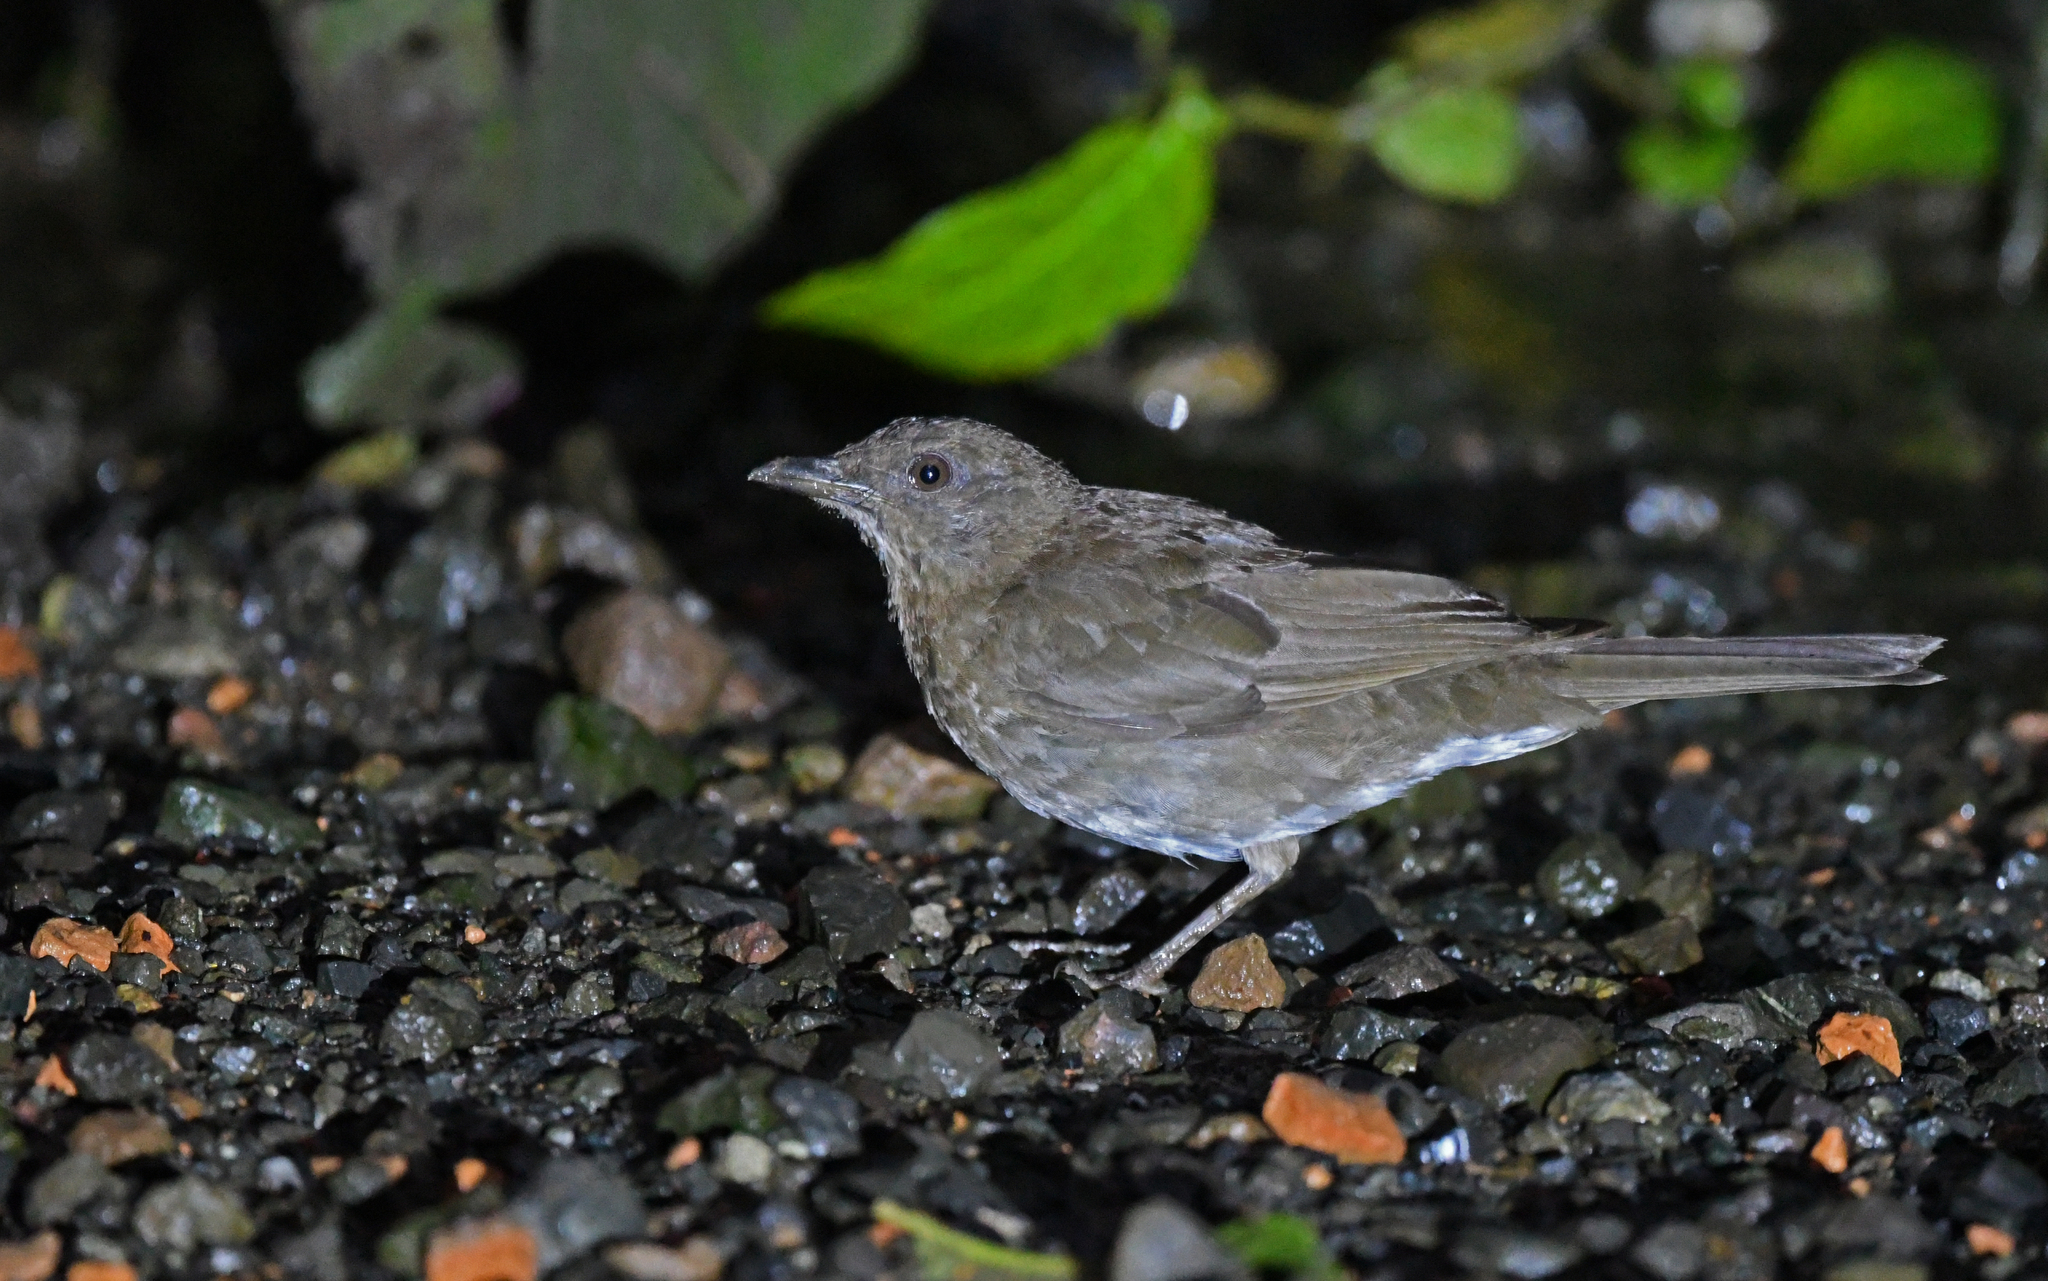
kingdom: Animalia
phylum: Chordata
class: Aves
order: Passeriformes
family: Turdidae
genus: Turdus
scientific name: Turdus ignobilis
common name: Black-billed thrush
